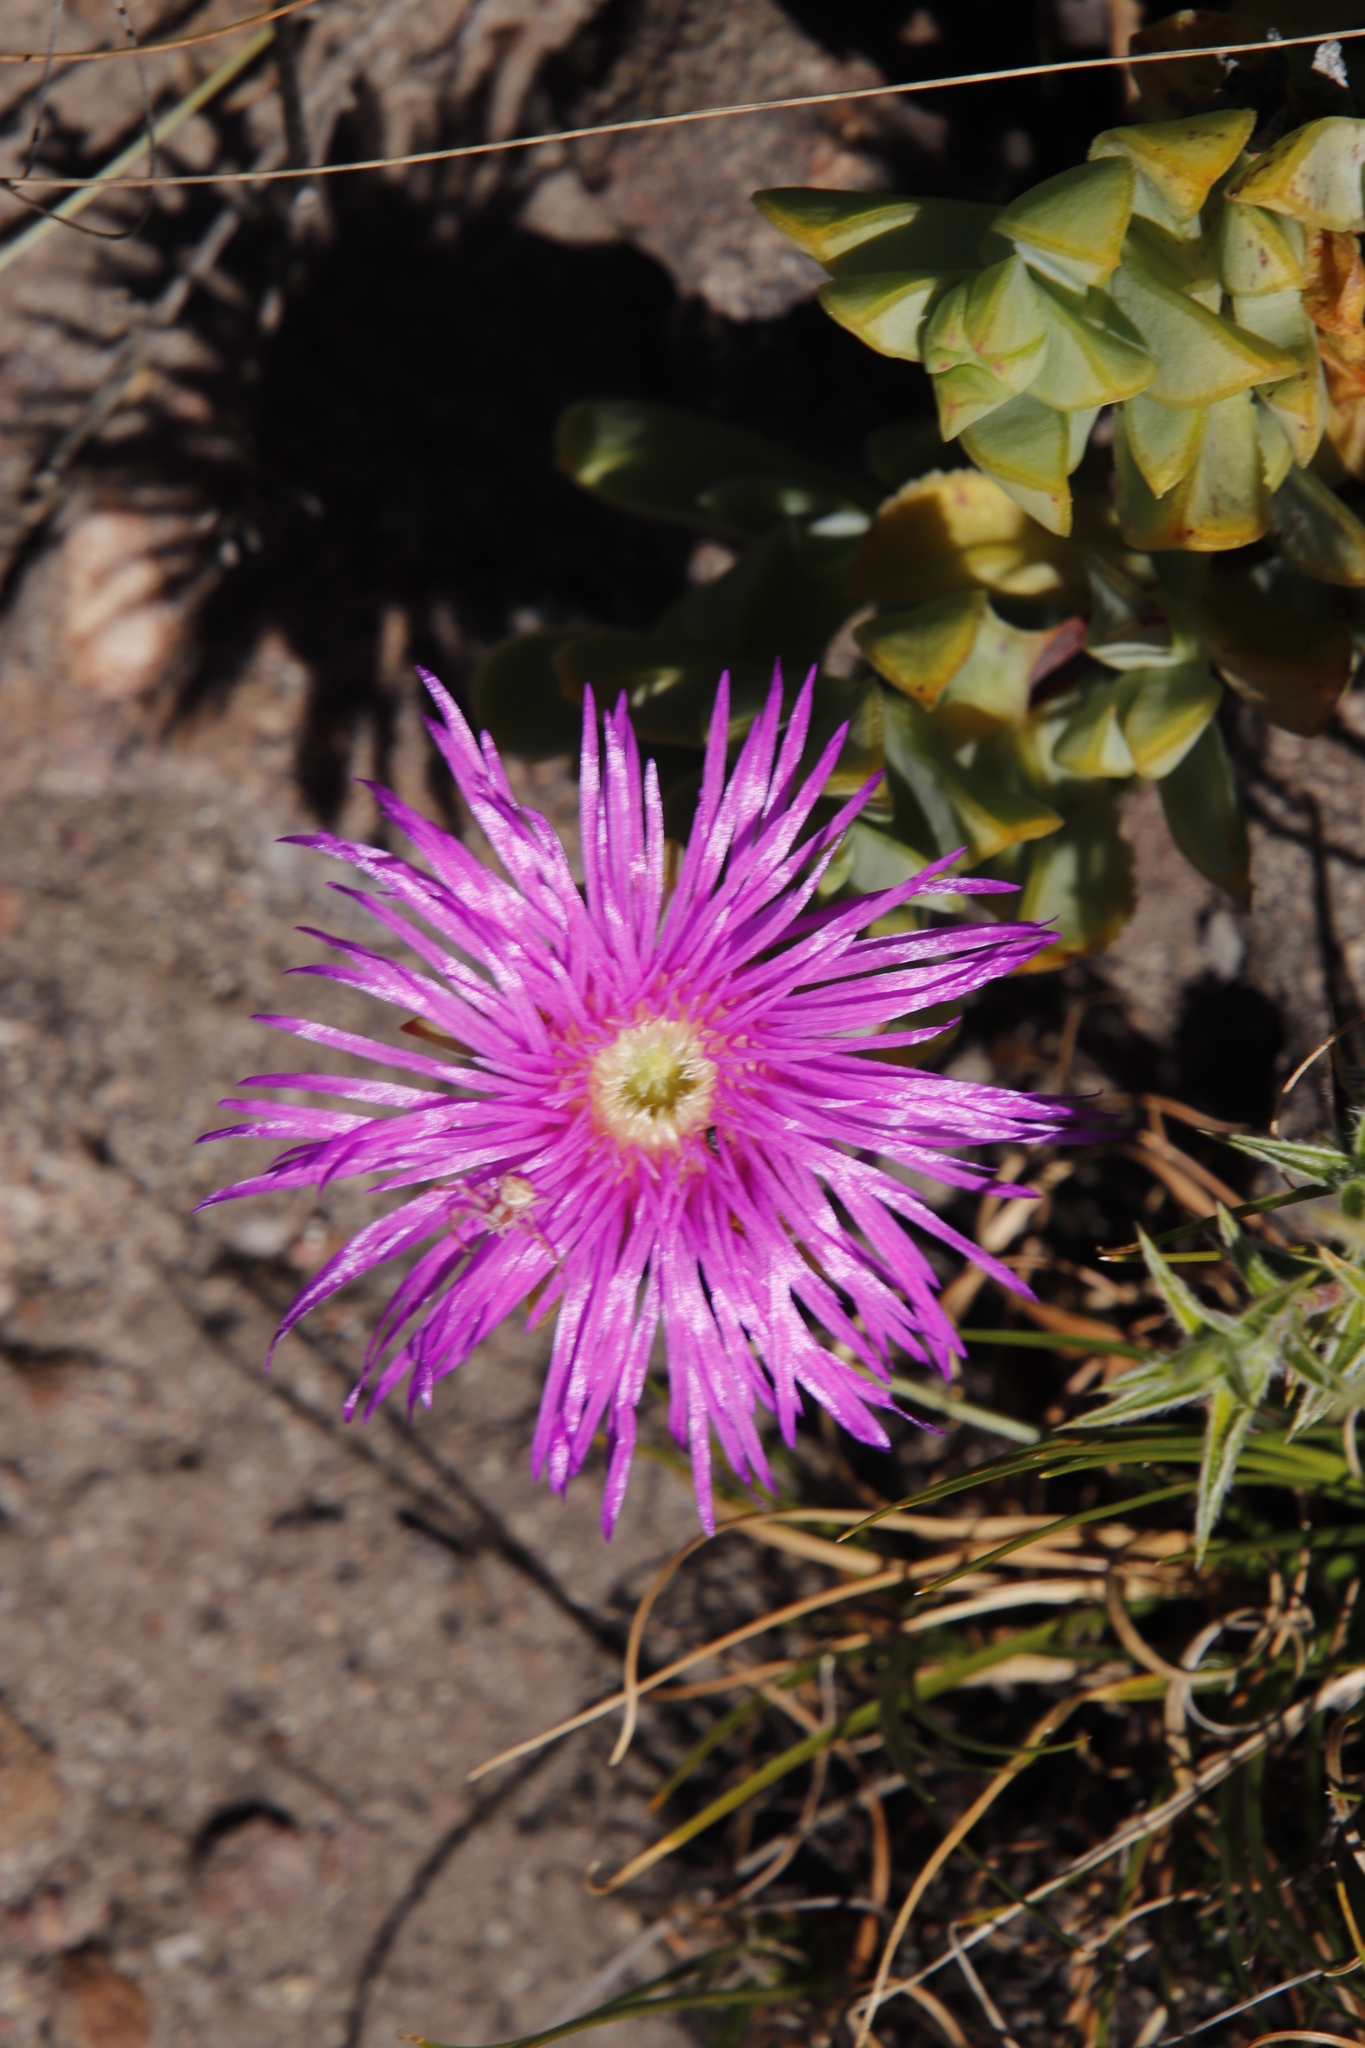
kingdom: Plantae
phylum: Tracheophyta
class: Magnoliopsida
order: Caryophyllales
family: Aizoaceae
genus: Erepsia
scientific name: Erepsia heteropetala
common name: Lesser sea-fig
